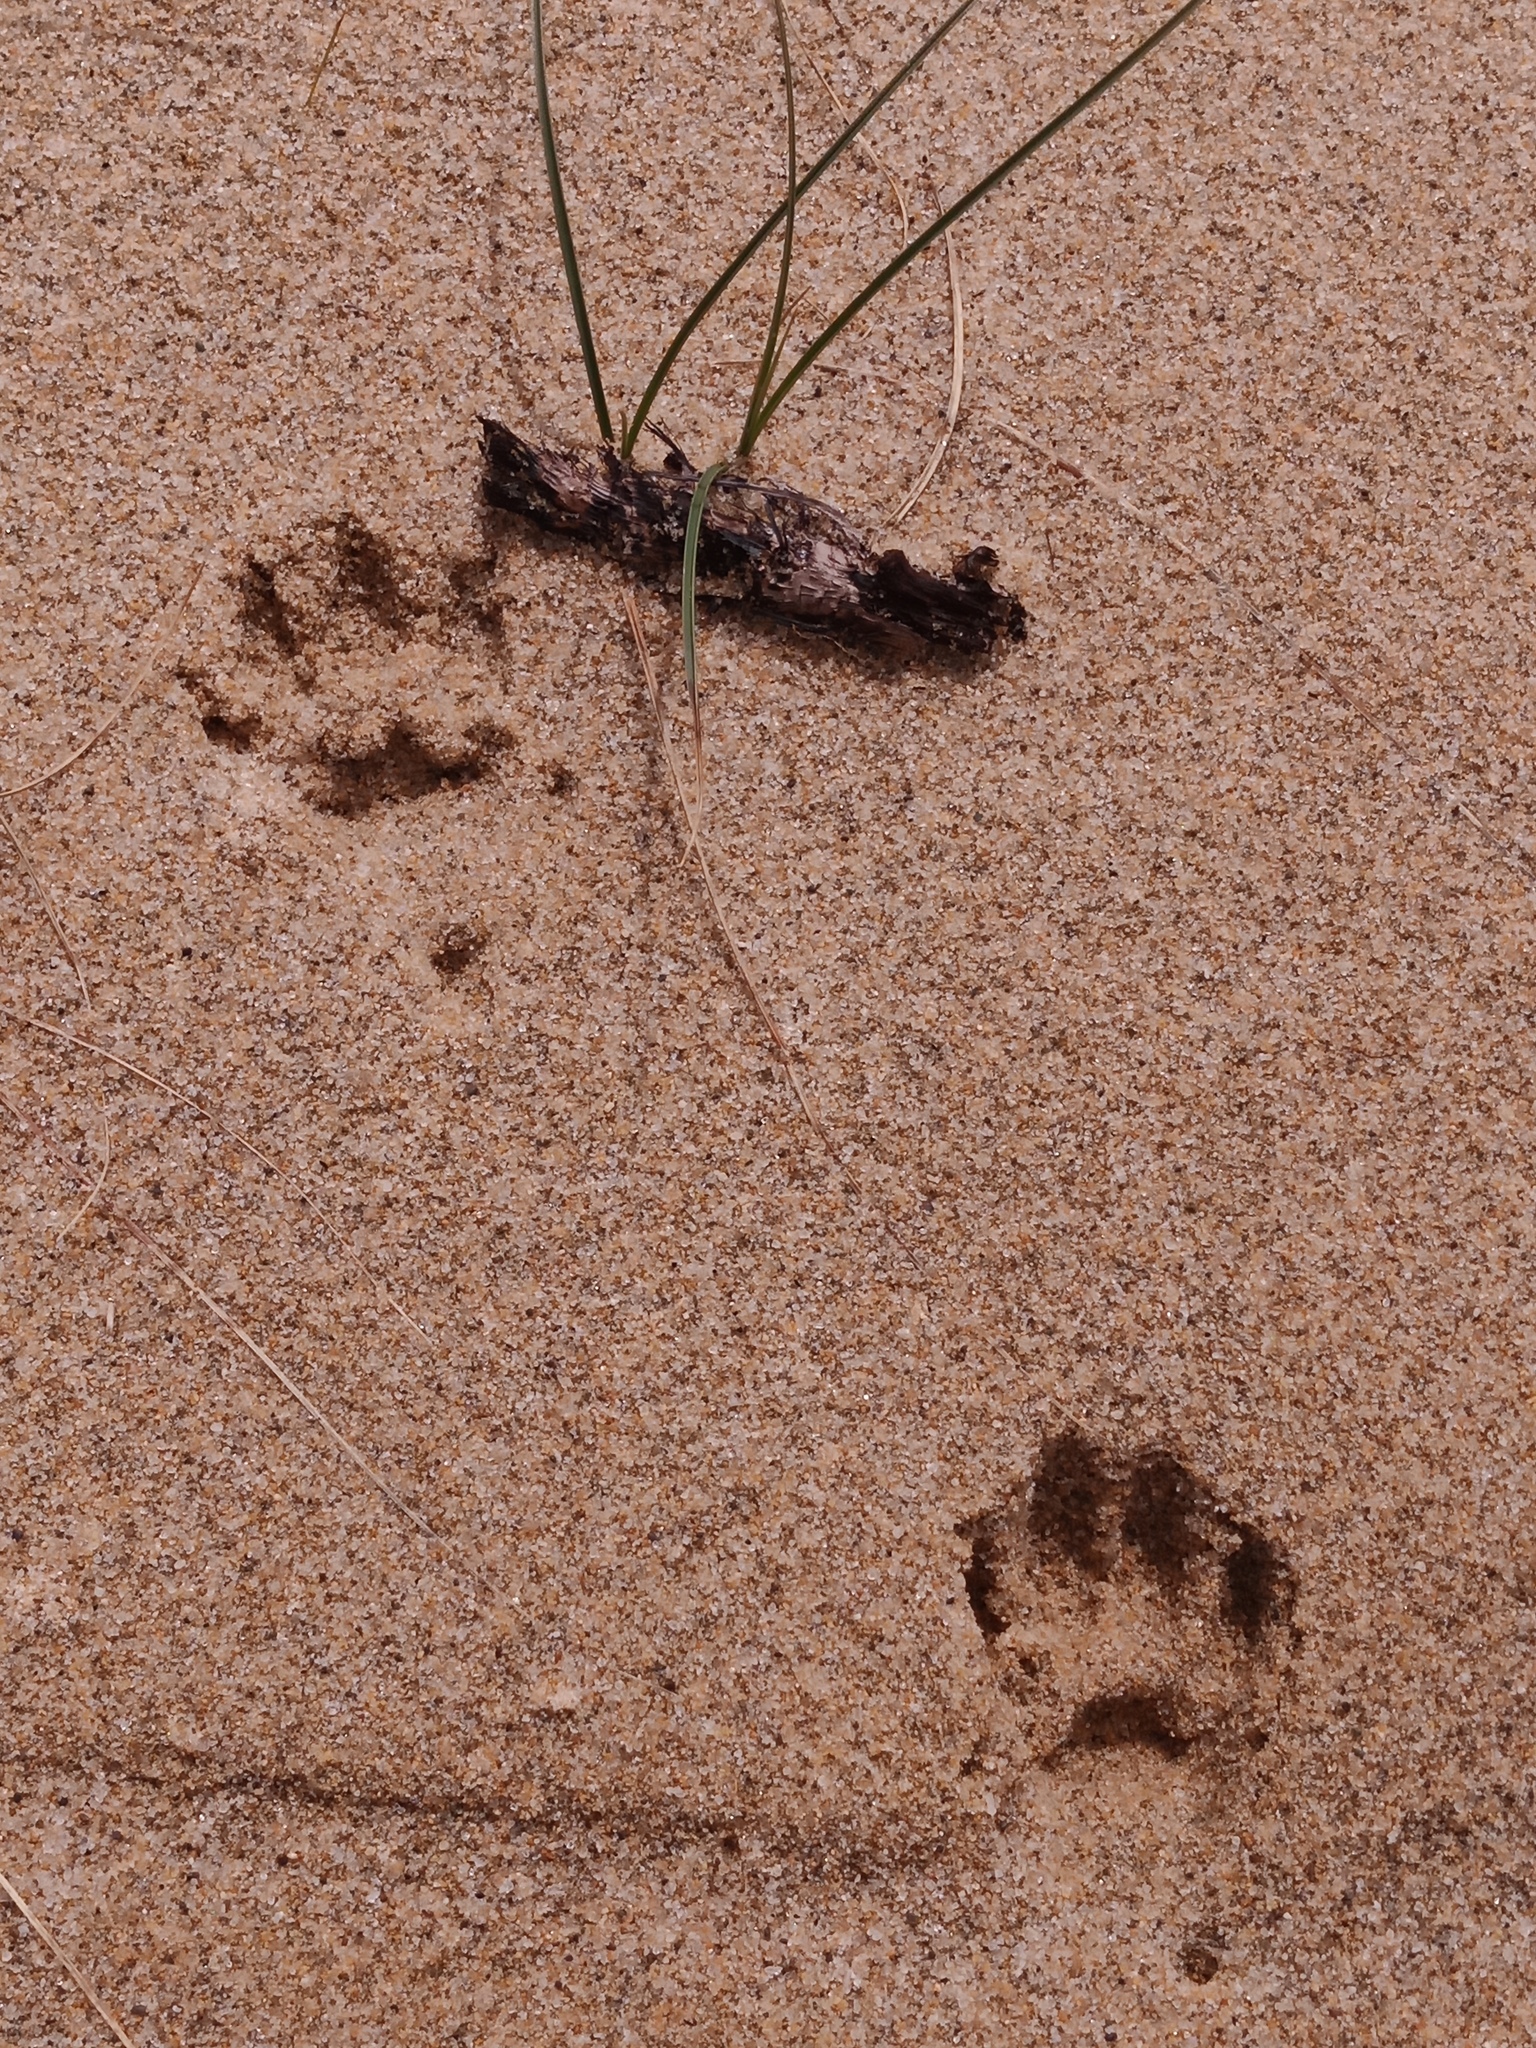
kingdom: Animalia
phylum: Chordata
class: Mammalia
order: Carnivora
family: Felidae
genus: Felis
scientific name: Felis catus
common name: Domestic cat
